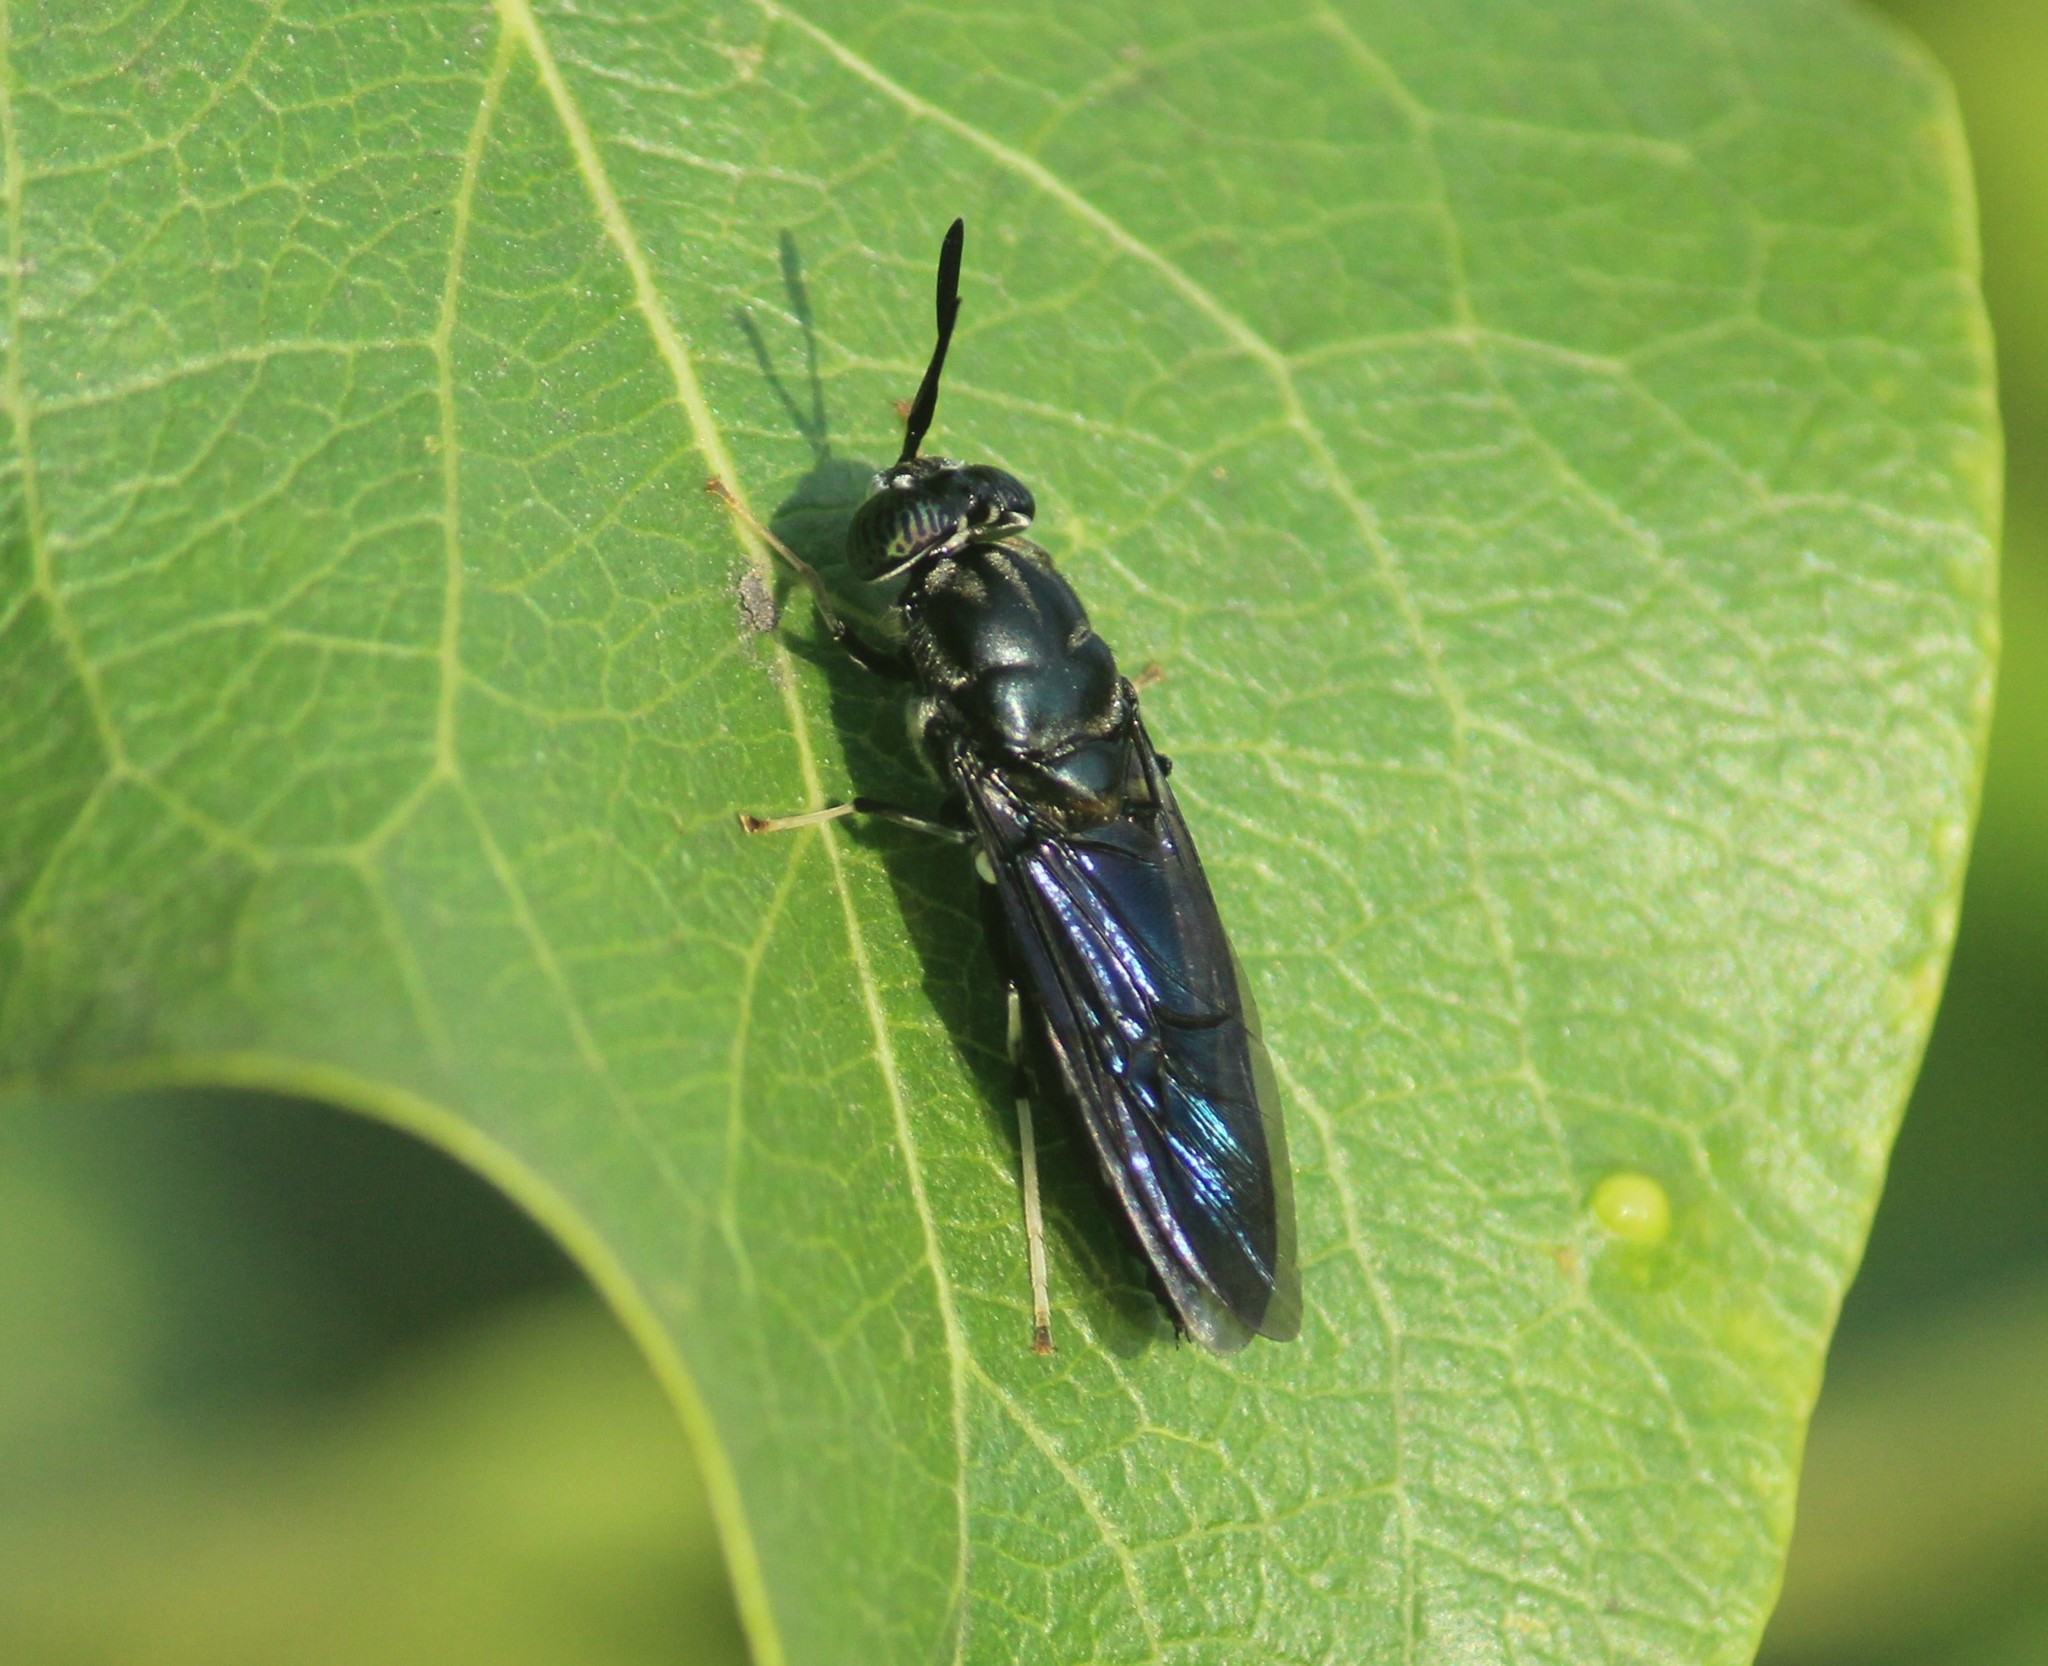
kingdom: Animalia
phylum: Arthropoda
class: Insecta
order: Diptera
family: Stratiomyidae
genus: Hermetia
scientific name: Hermetia illucens
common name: Black soldier fly
